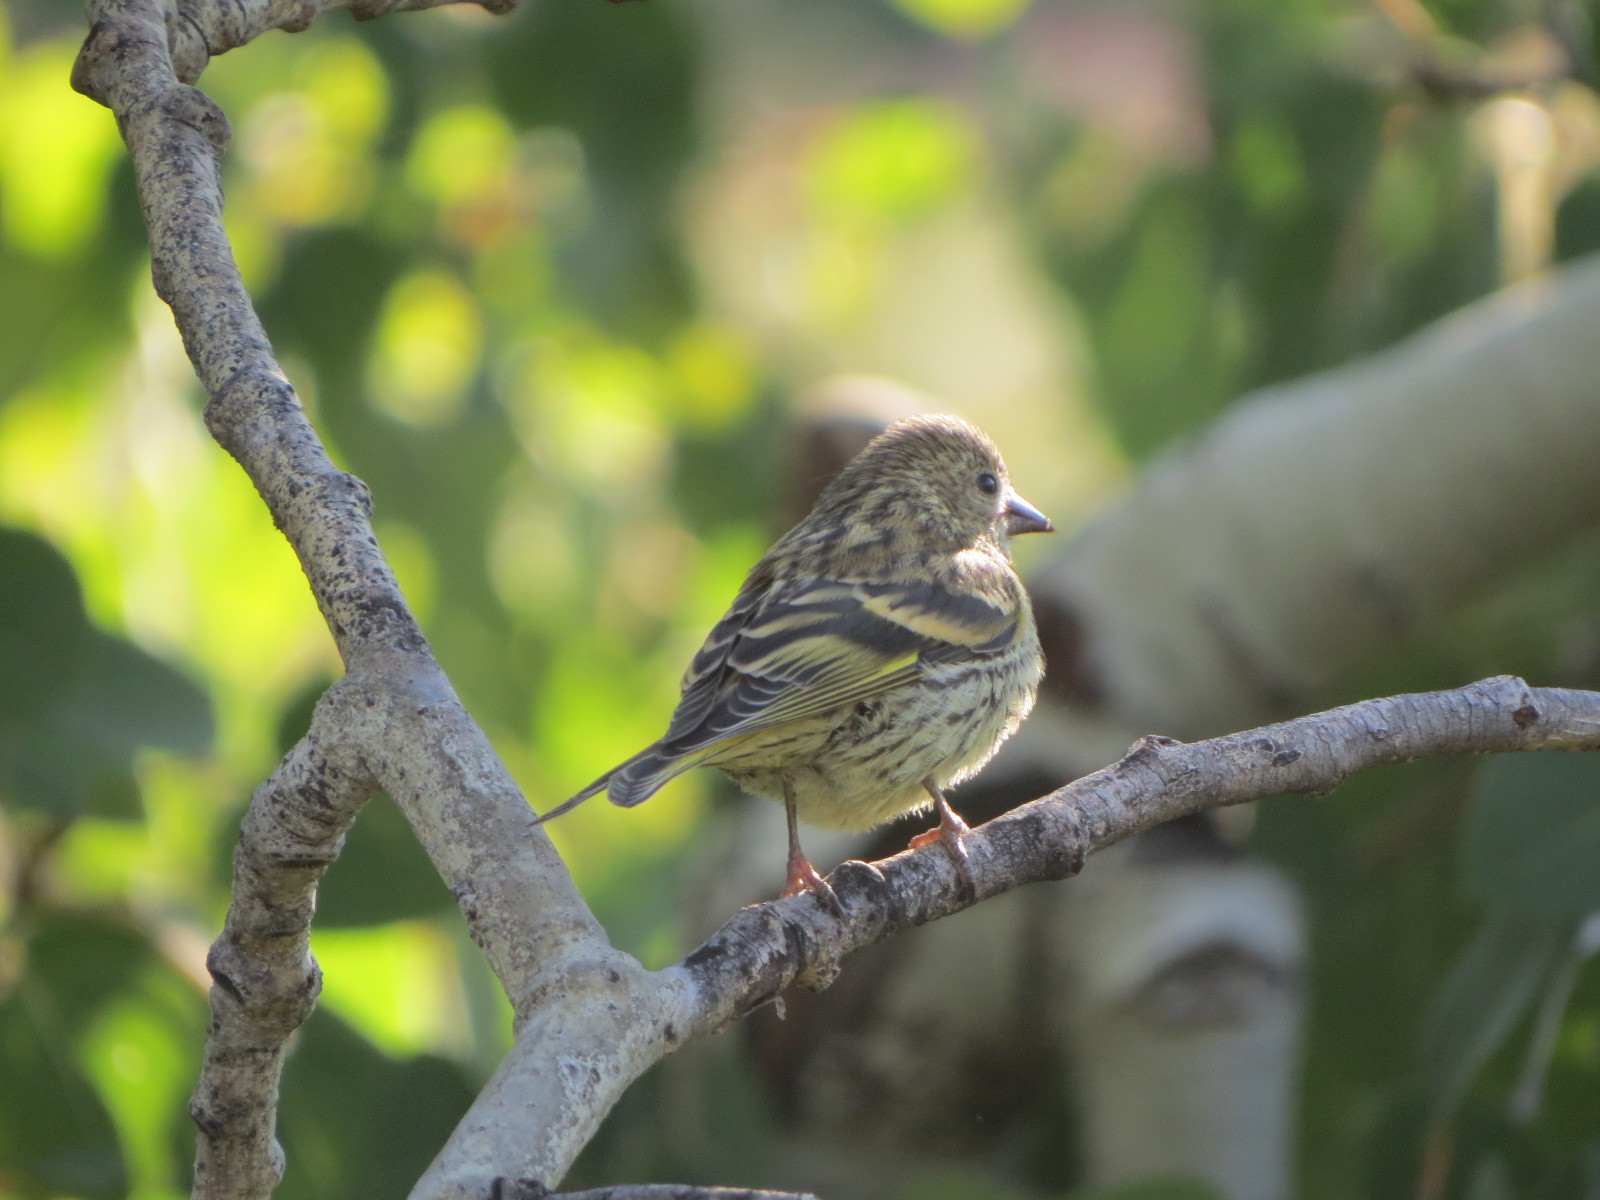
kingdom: Animalia
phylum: Chordata
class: Aves
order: Passeriformes
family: Fringillidae
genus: Spinus
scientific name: Spinus pinus
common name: Pine siskin
